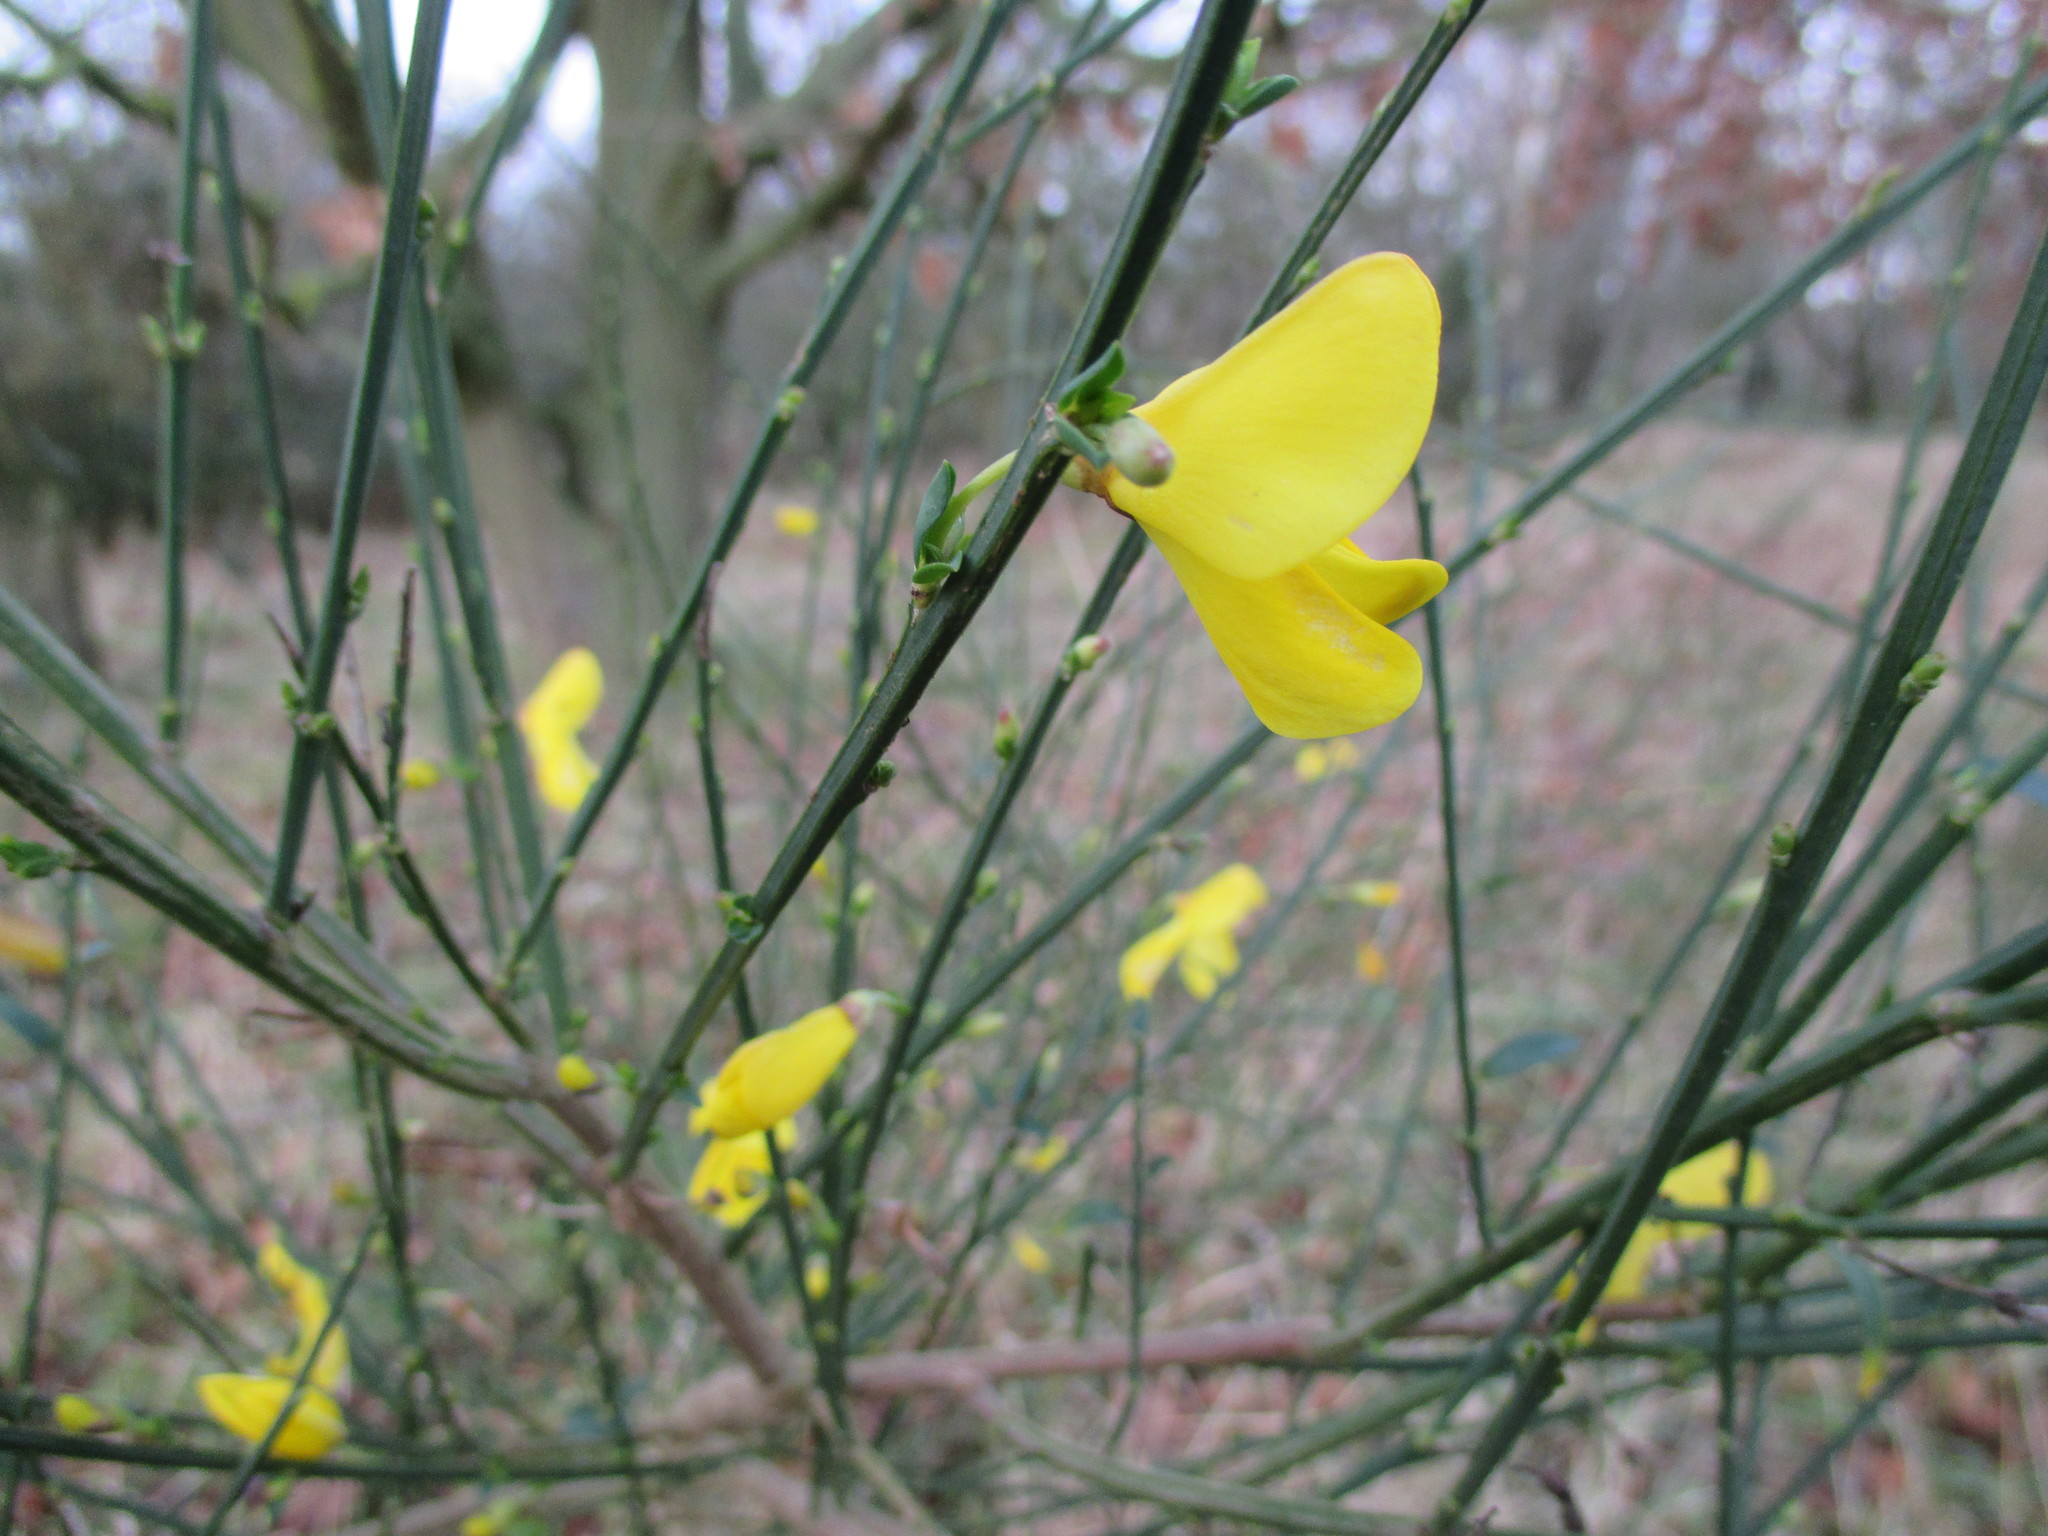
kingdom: Plantae
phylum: Tracheophyta
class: Magnoliopsida
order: Fabales
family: Fabaceae
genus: Cytisus
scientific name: Cytisus scoparius
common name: Scotch broom
